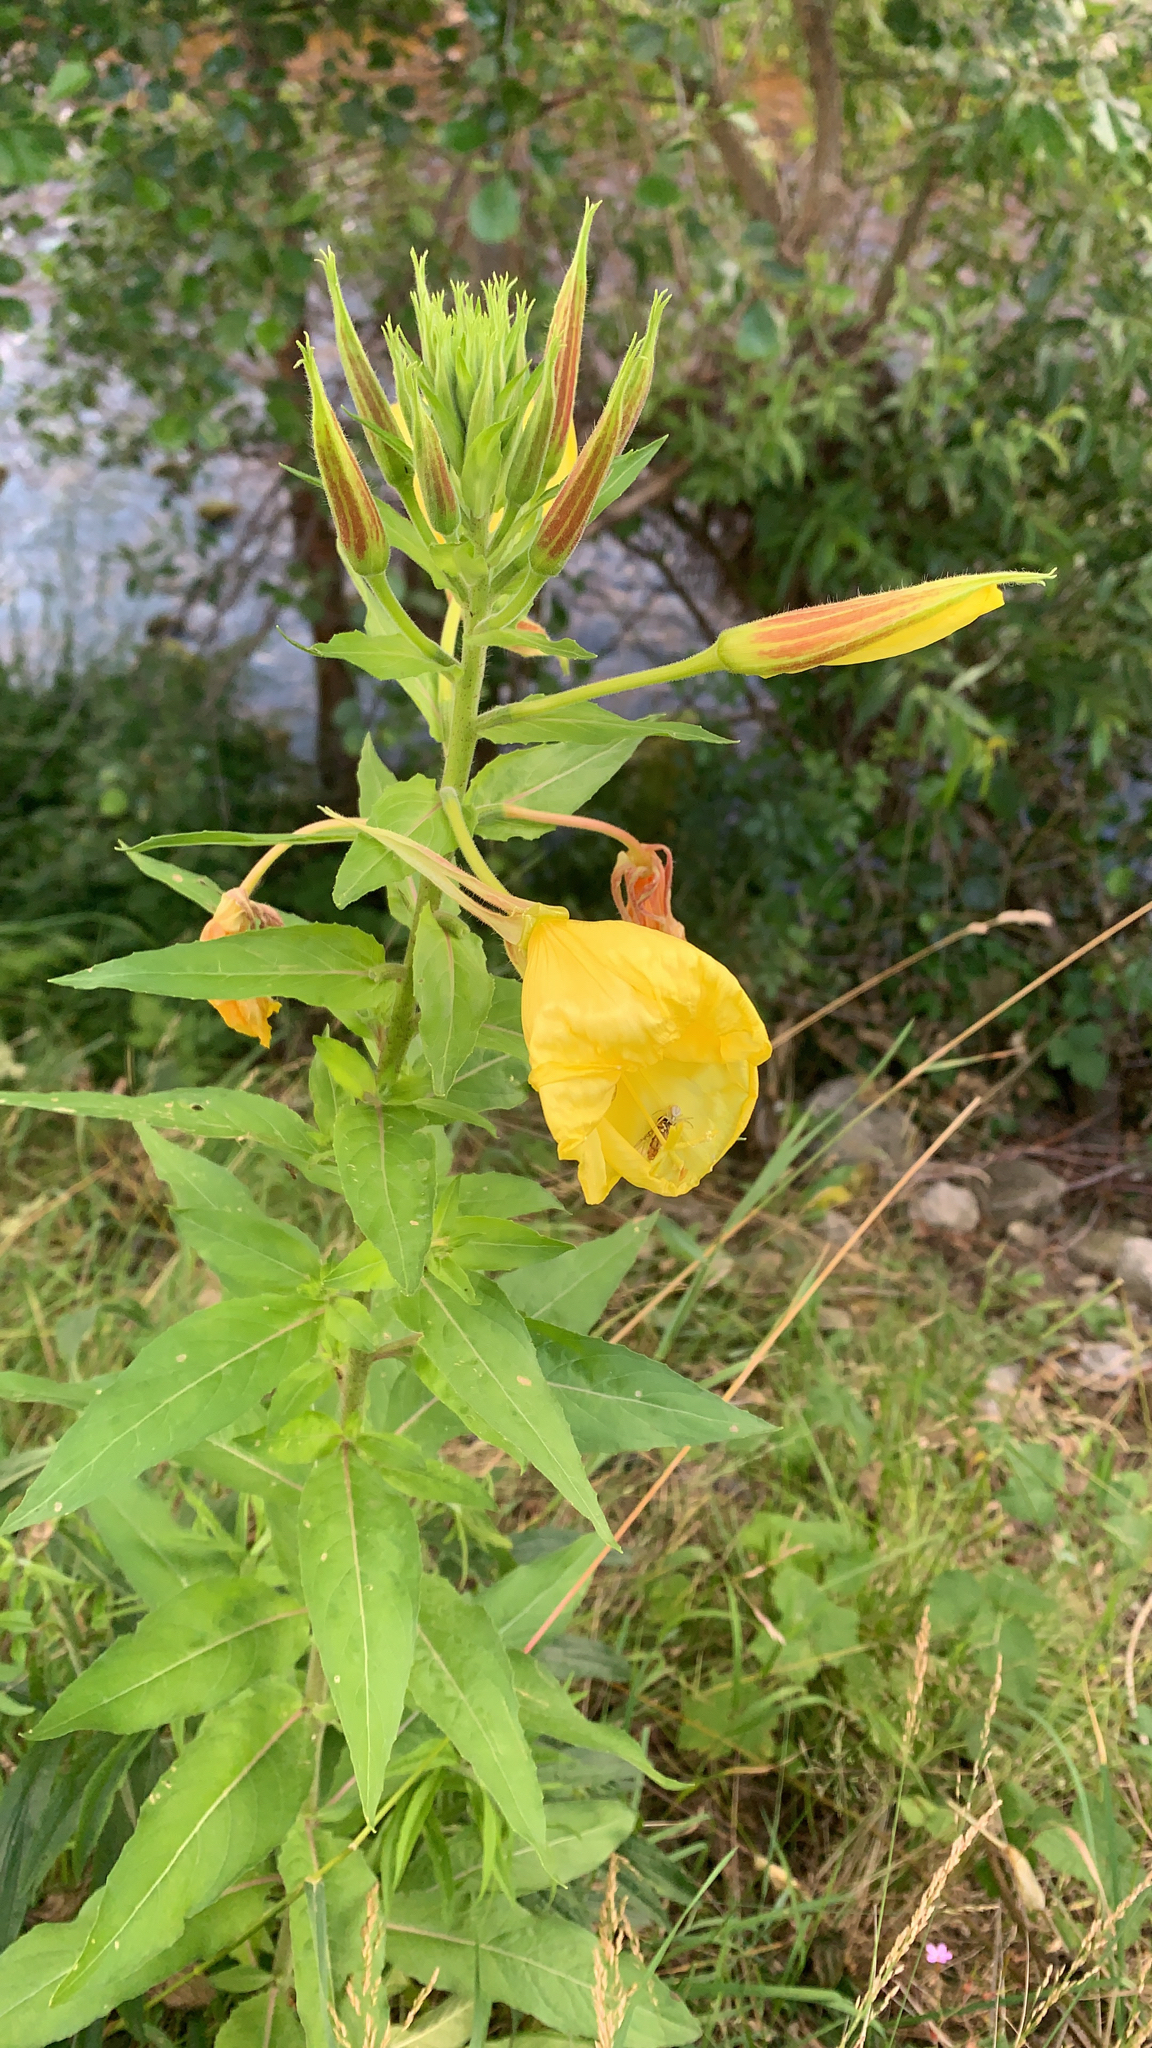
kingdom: Plantae
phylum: Tracheophyta
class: Magnoliopsida
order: Myrtales
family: Onagraceae
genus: Oenothera
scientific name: Oenothera glazioviana
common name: Large-flowered evening-primrose
